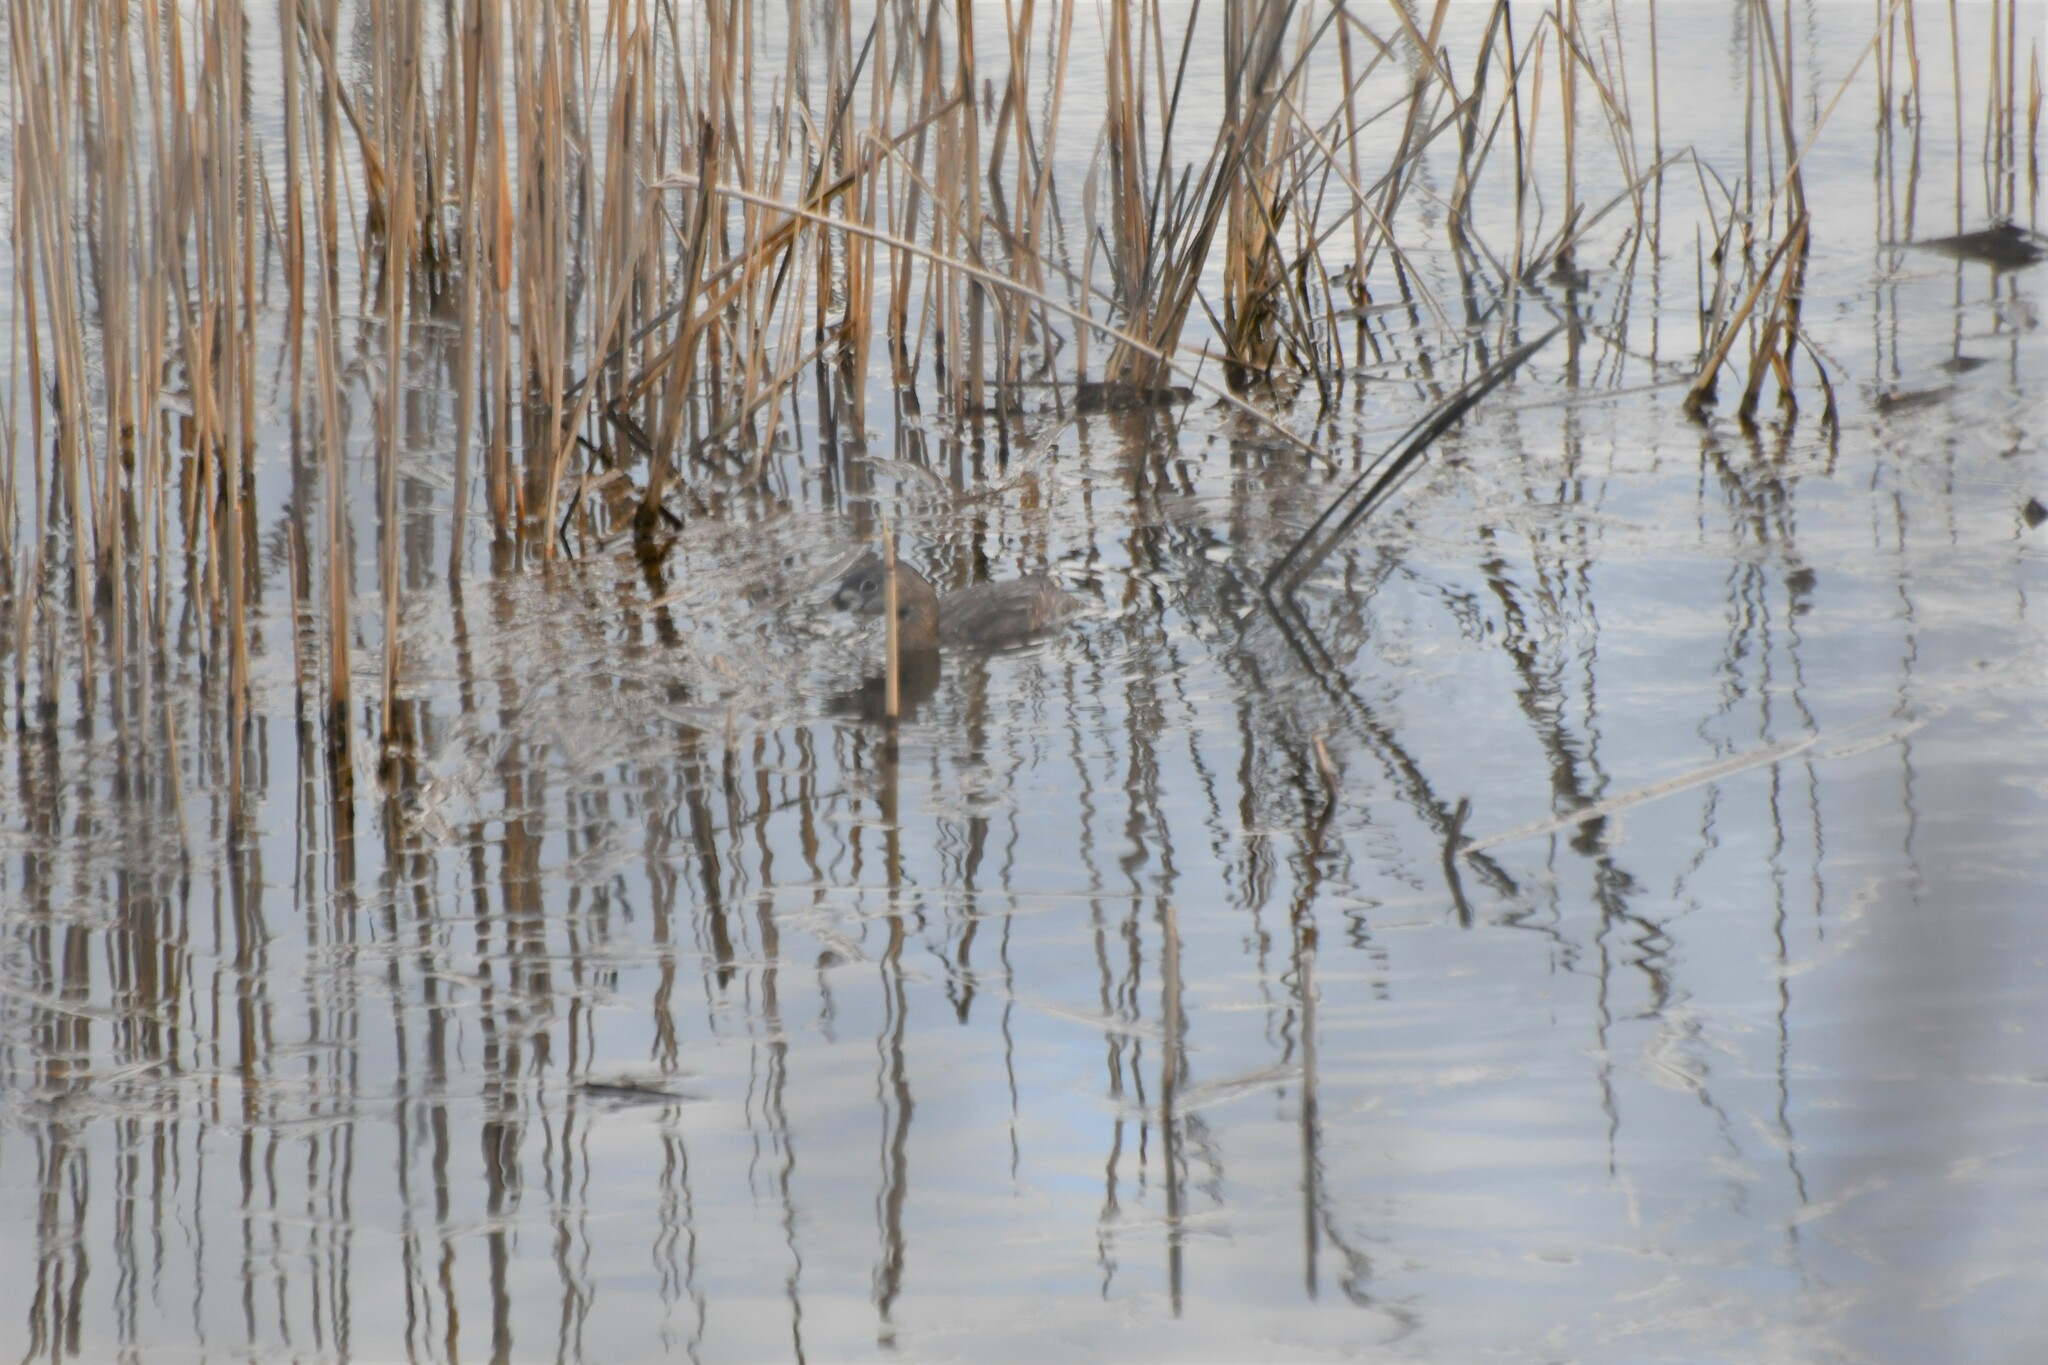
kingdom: Animalia
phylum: Chordata
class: Aves
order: Podicipediformes
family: Podicipedidae
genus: Podilymbus
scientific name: Podilymbus podiceps
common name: Pied-billed grebe
